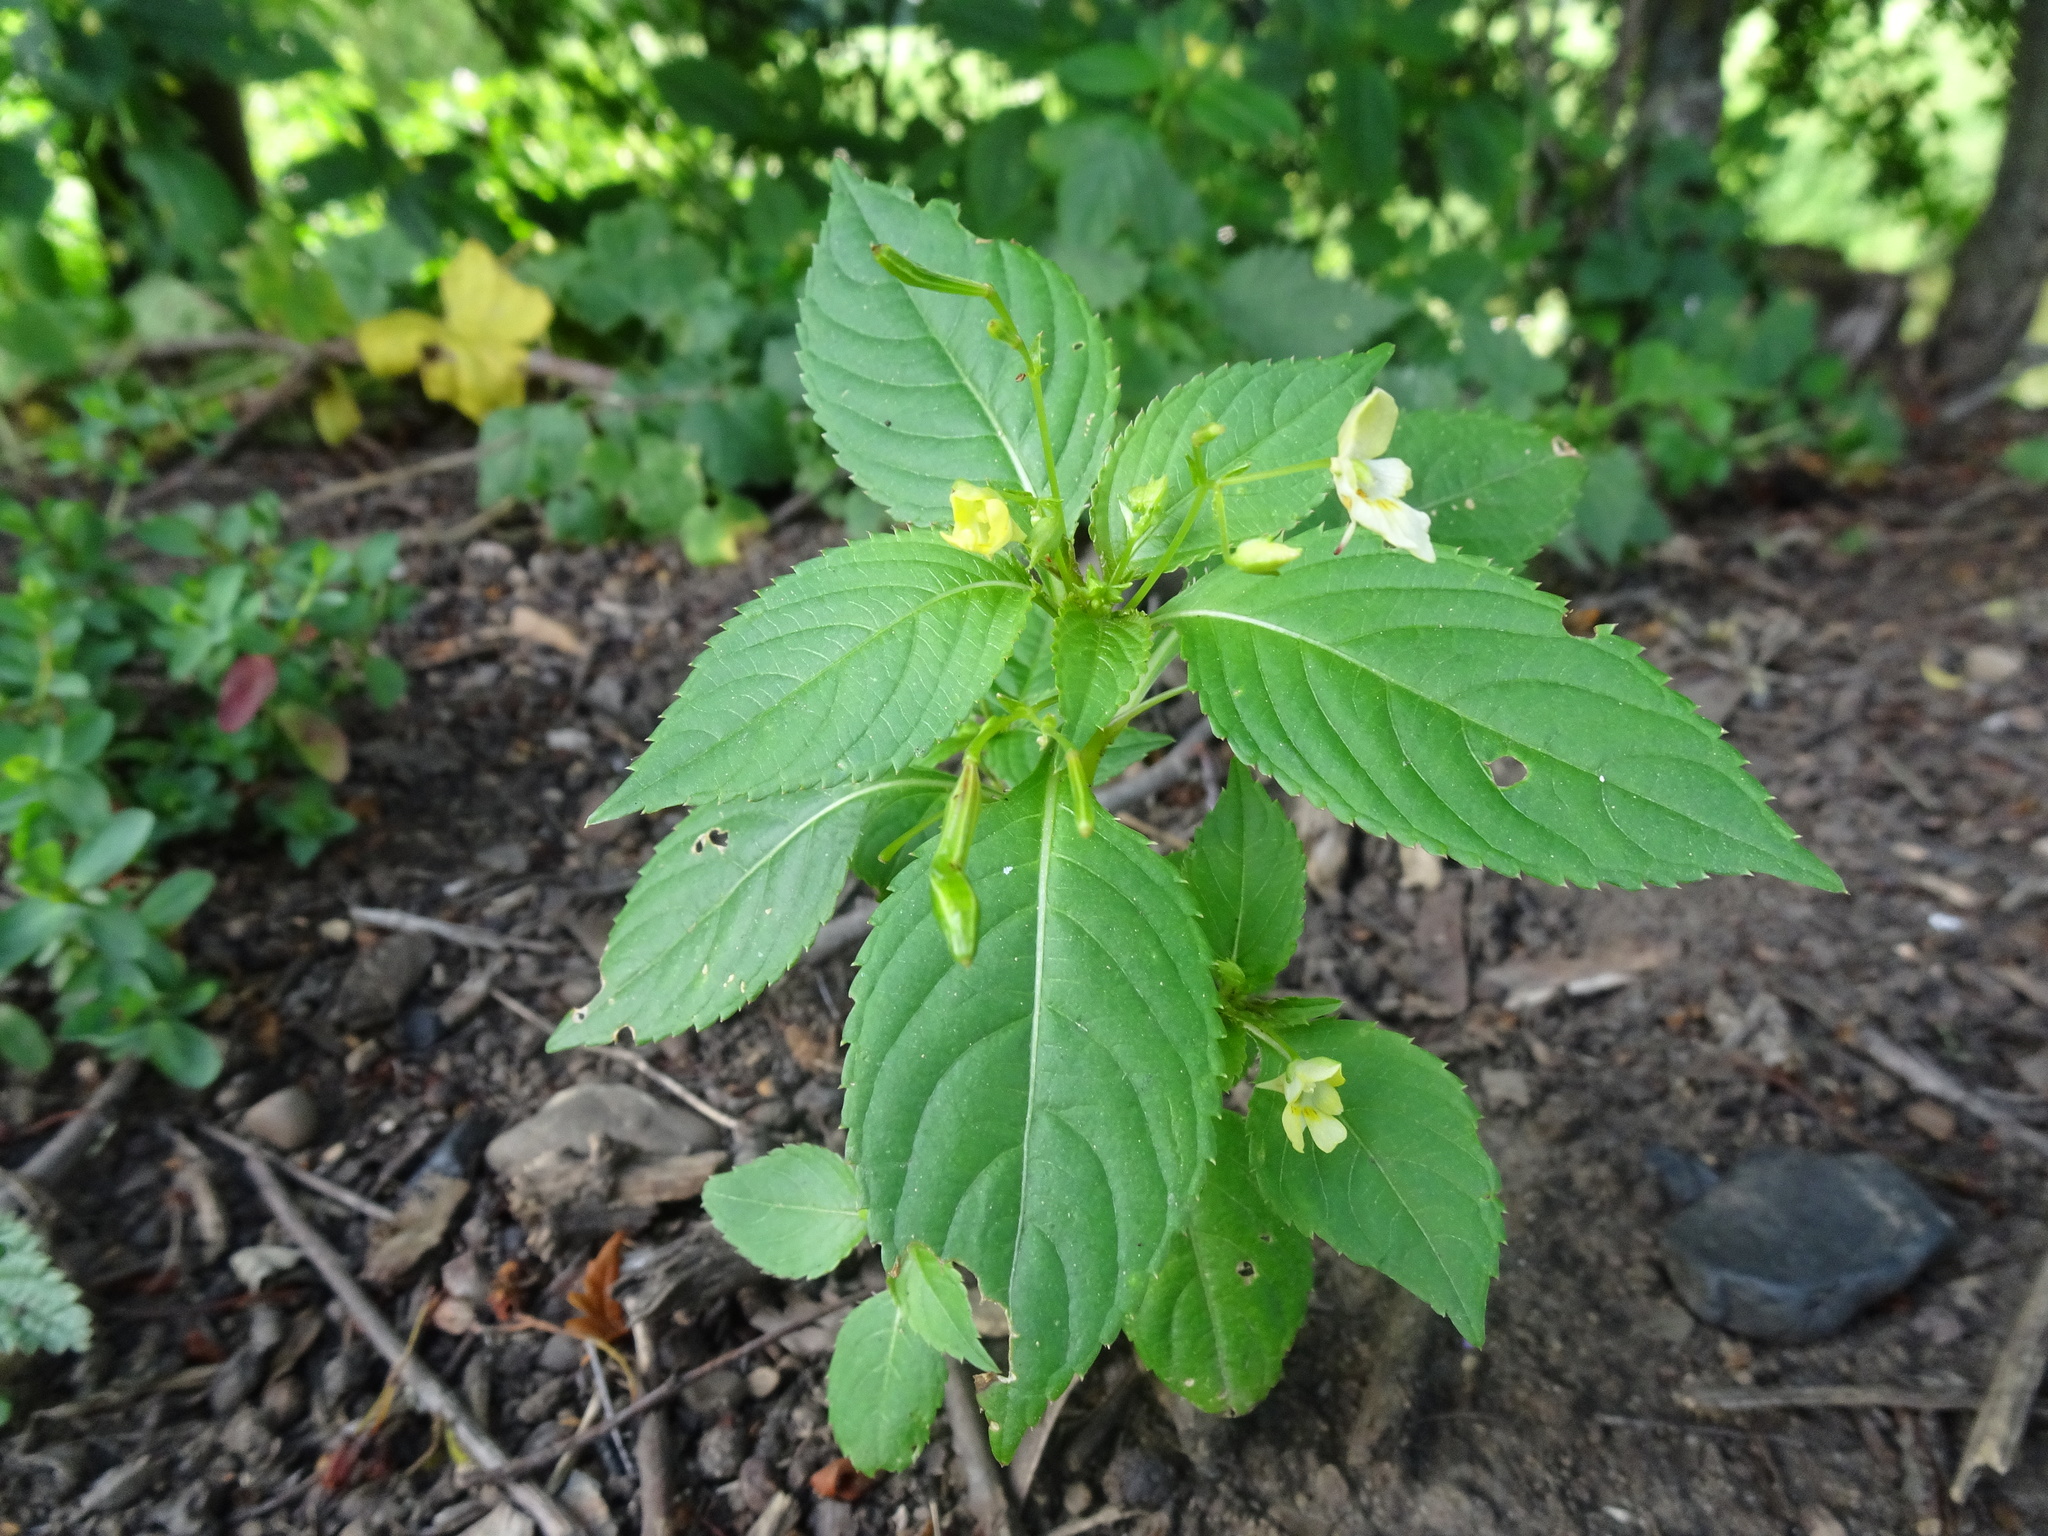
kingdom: Plantae
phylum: Tracheophyta
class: Magnoliopsida
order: Ericales
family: Balsaminaceae
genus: Impatiens
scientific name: Impatiens parviflora
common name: Small balsam
